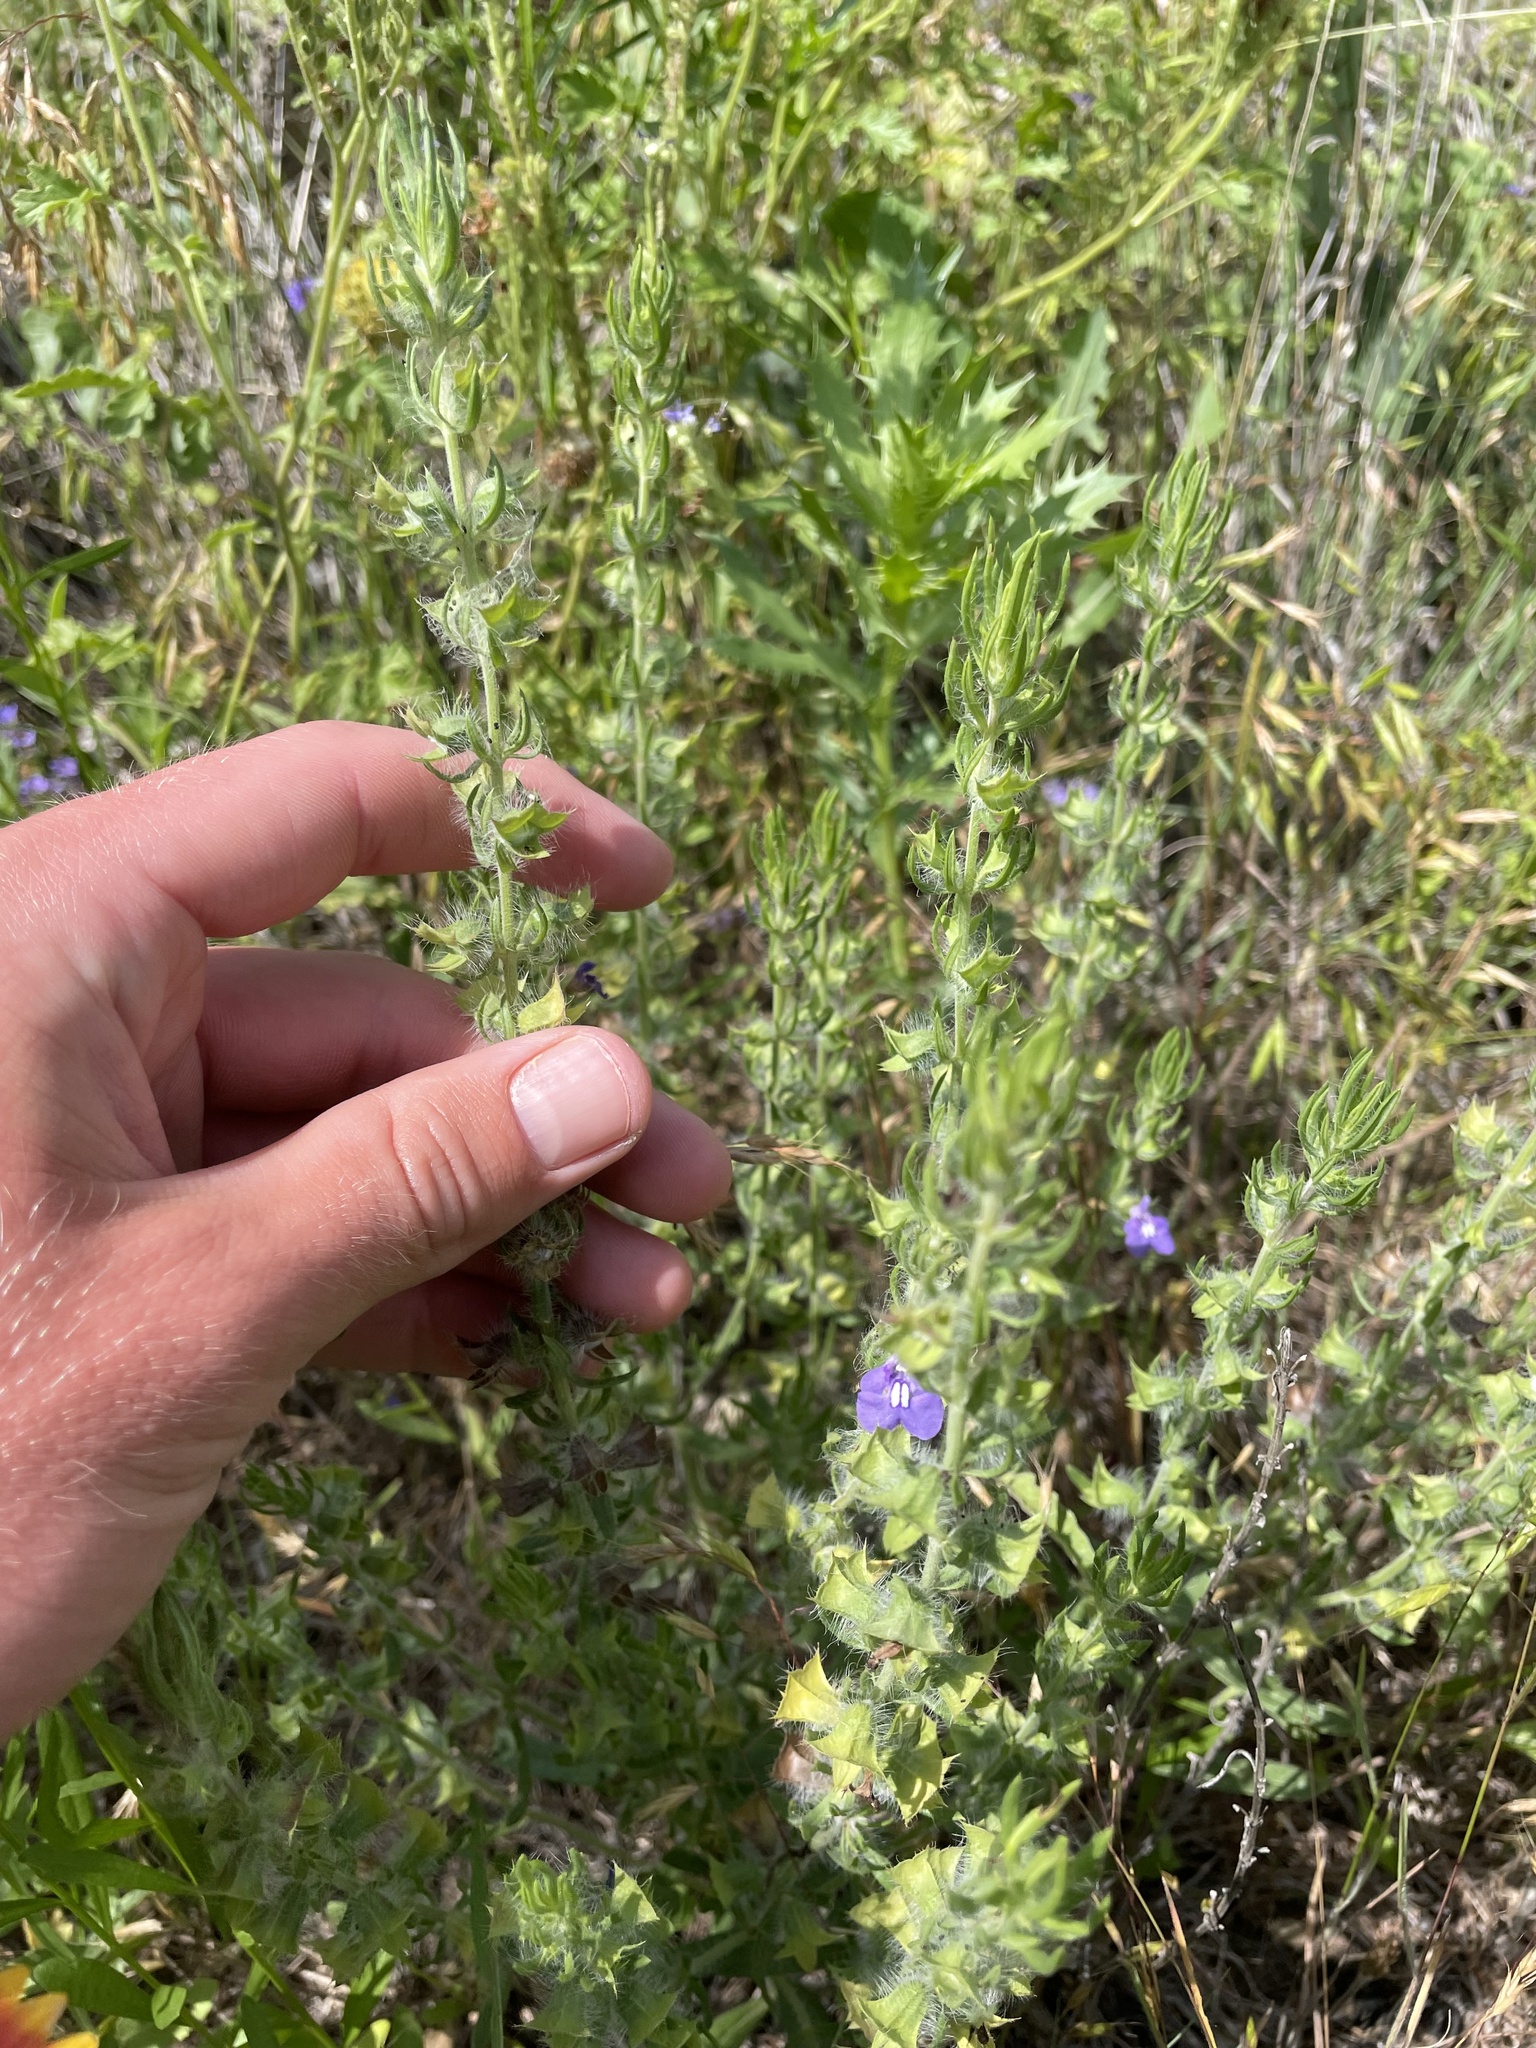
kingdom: Plantae
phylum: Tracheophyta
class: Magnoliopsida
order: Lamiales
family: Lamiaceae
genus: Salvia
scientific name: Salvia texana
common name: Texas sage
